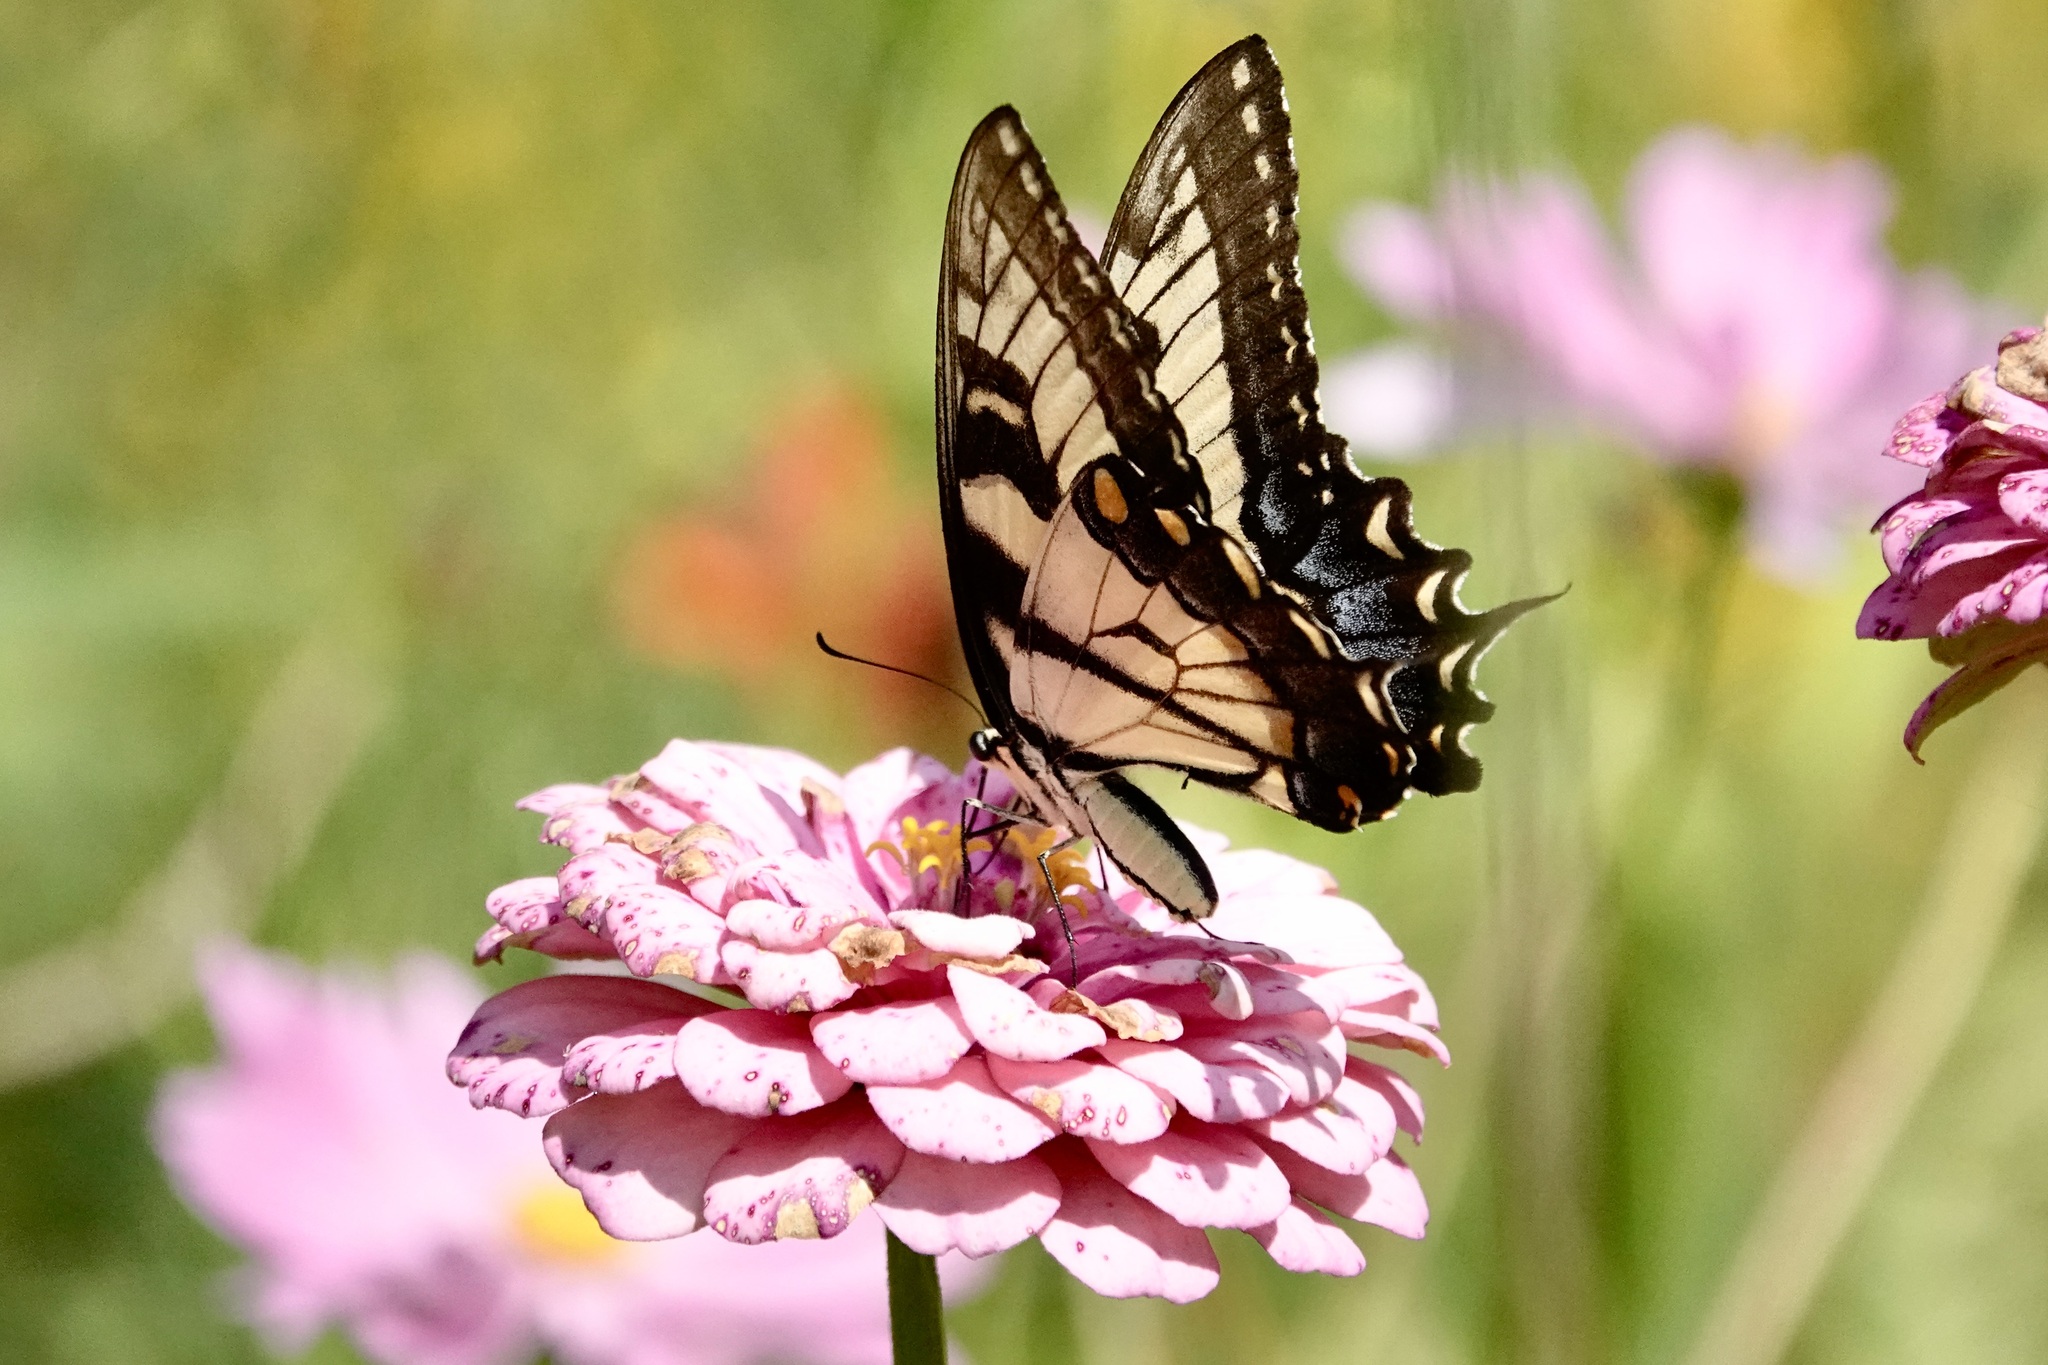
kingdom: Animalia
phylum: Arthropoda
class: Insecta
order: Lepidoptera
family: Papilionidae
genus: Papilio
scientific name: Papilio glaucus
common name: Tiger swallowtail
